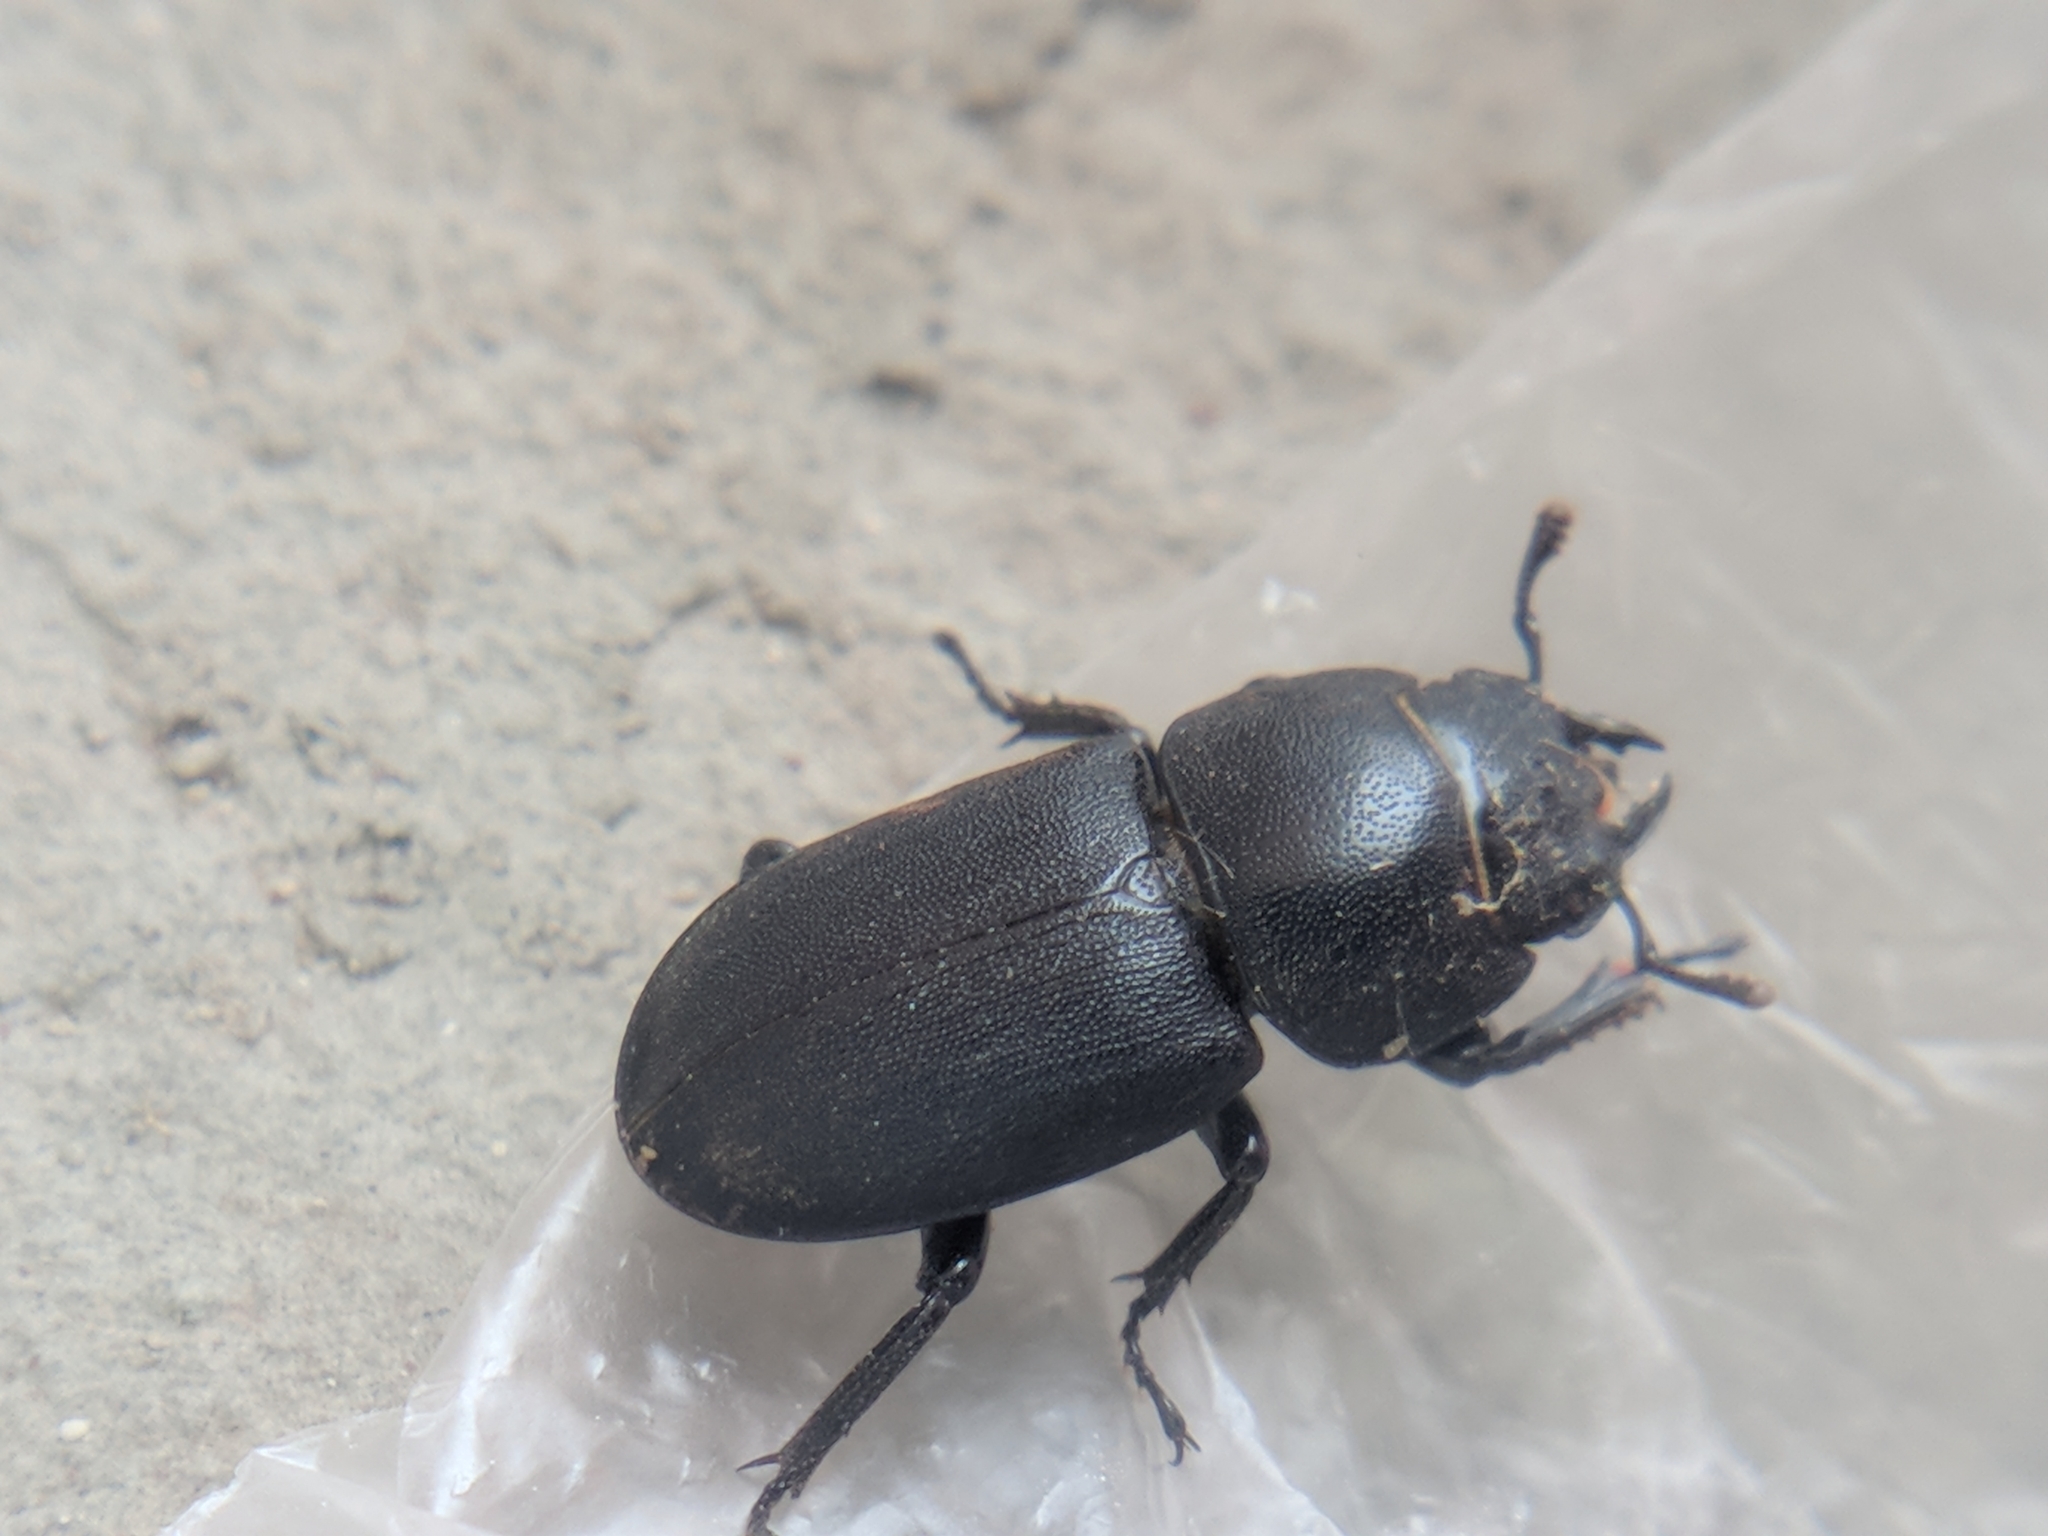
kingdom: Animalia
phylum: Arthropoda
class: Insecta
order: Coleoptera
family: Lucanidae
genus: Dorcus
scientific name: Dorcus parallelipipedus
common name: Lesser stag beetle
